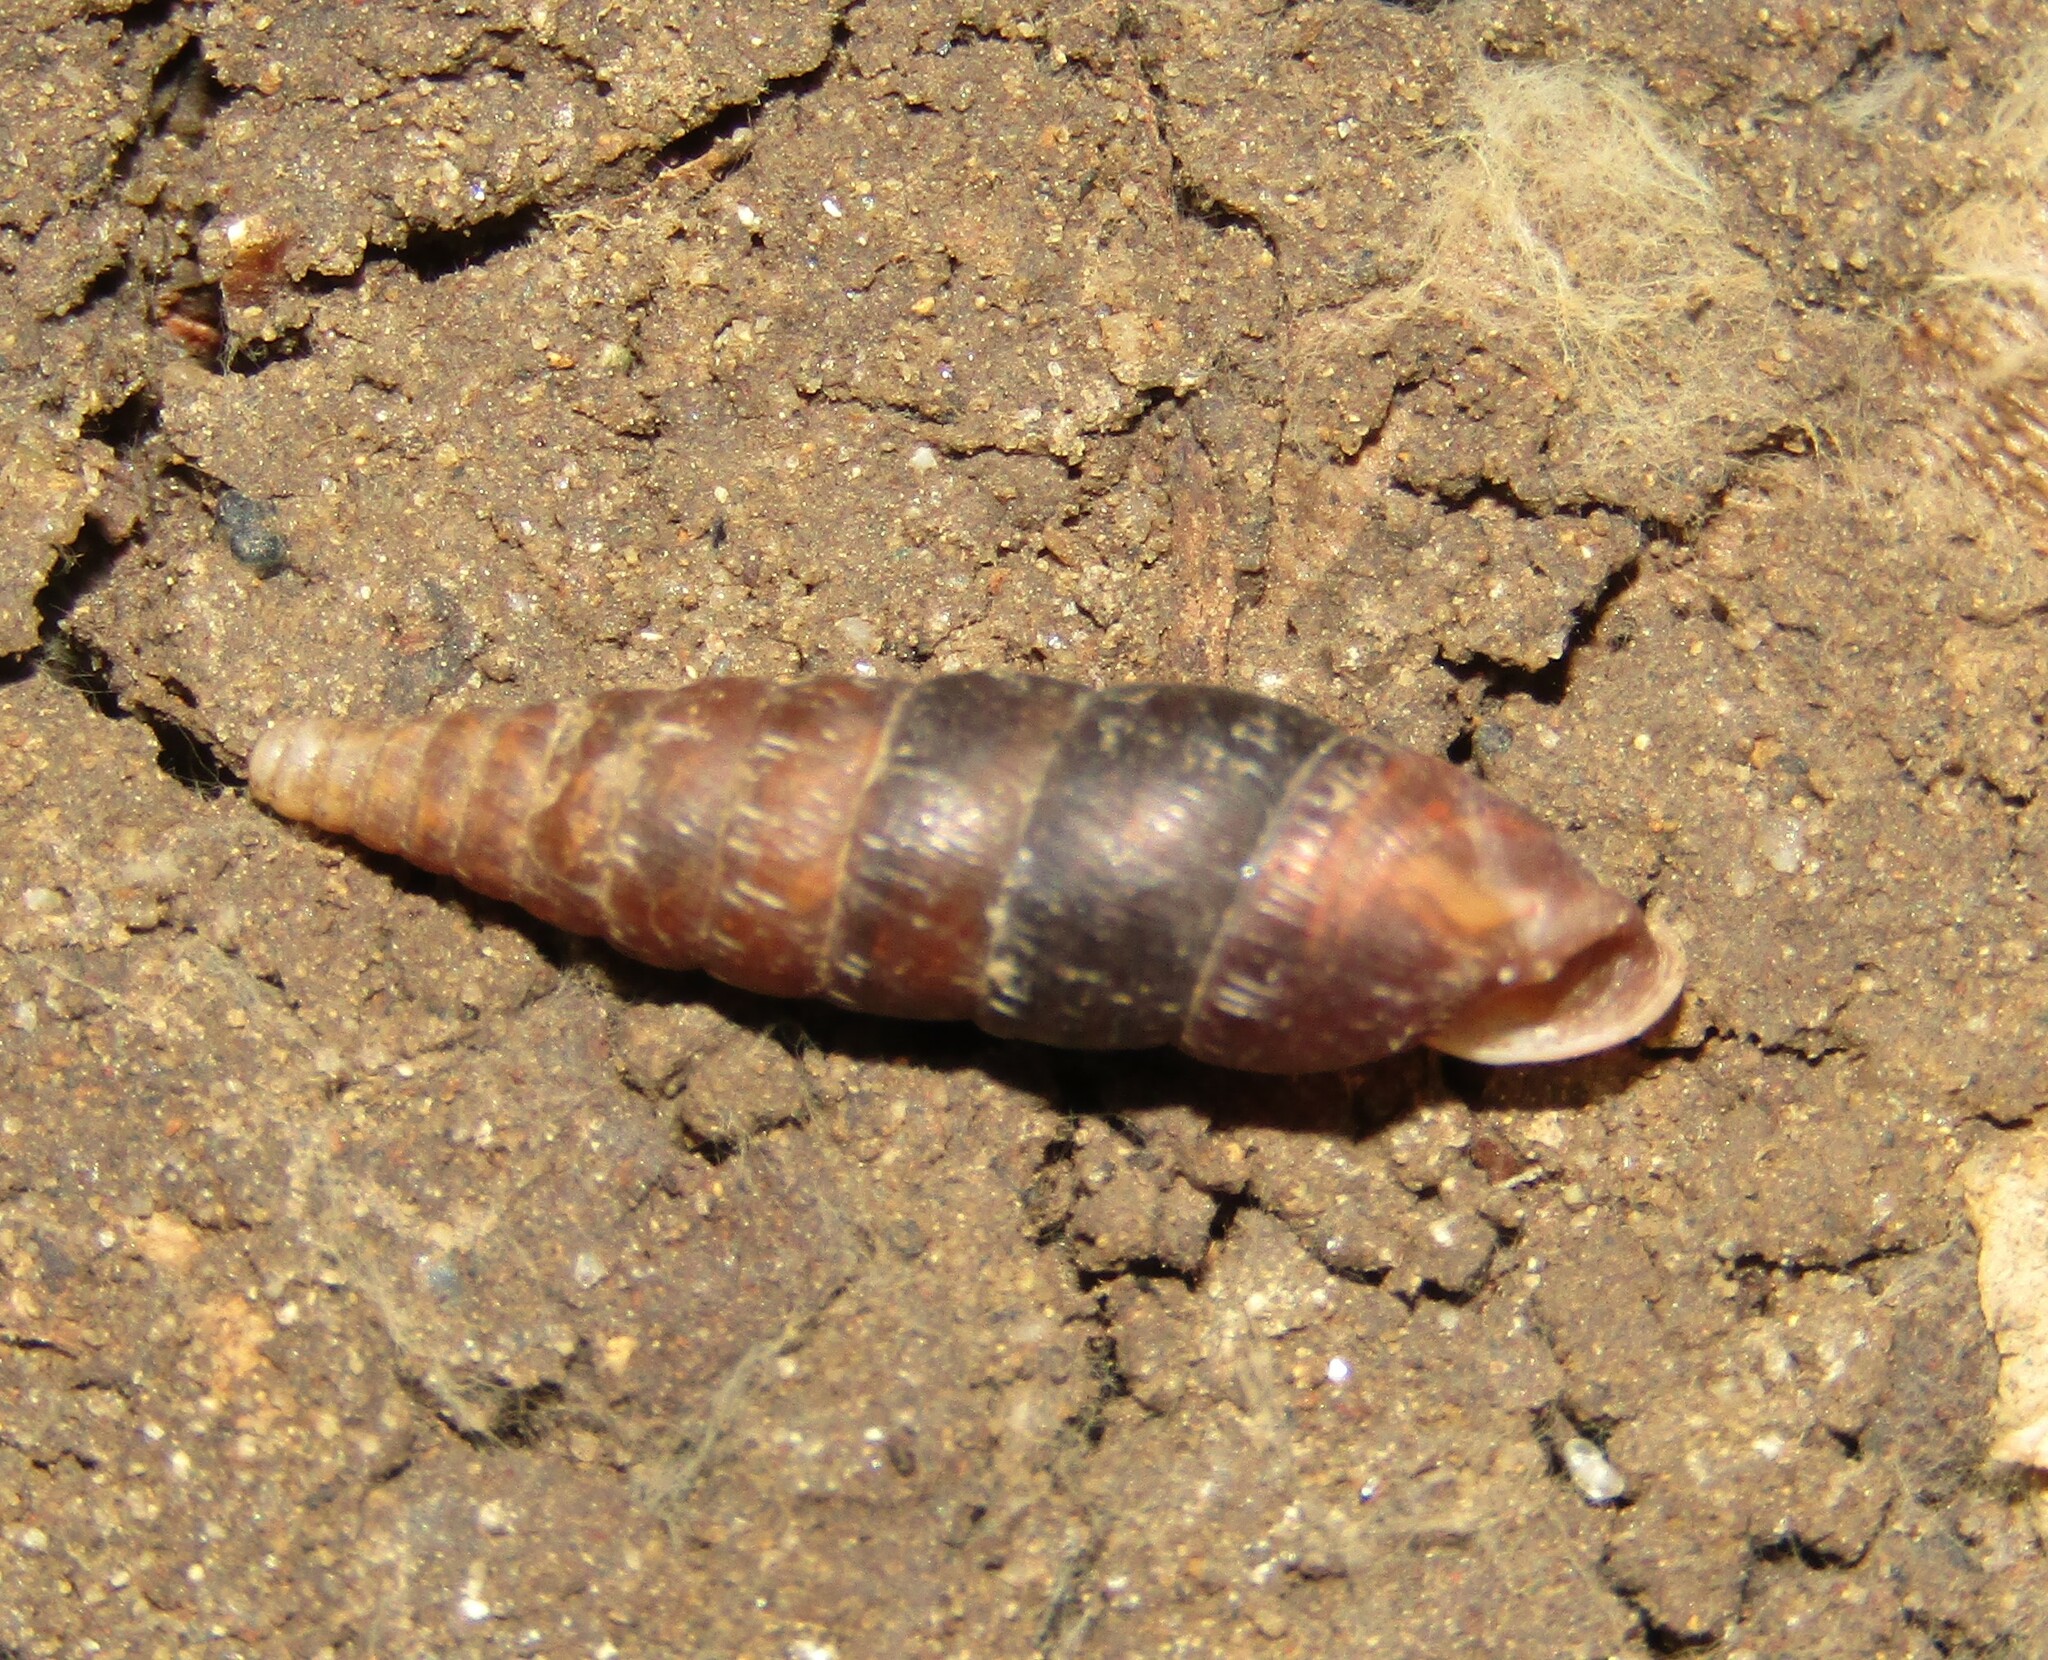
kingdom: Animalia
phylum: Mollusca
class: Gastropoda
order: Stylommatophora
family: Clausiliidae
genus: Elia
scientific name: Elia novorossica
